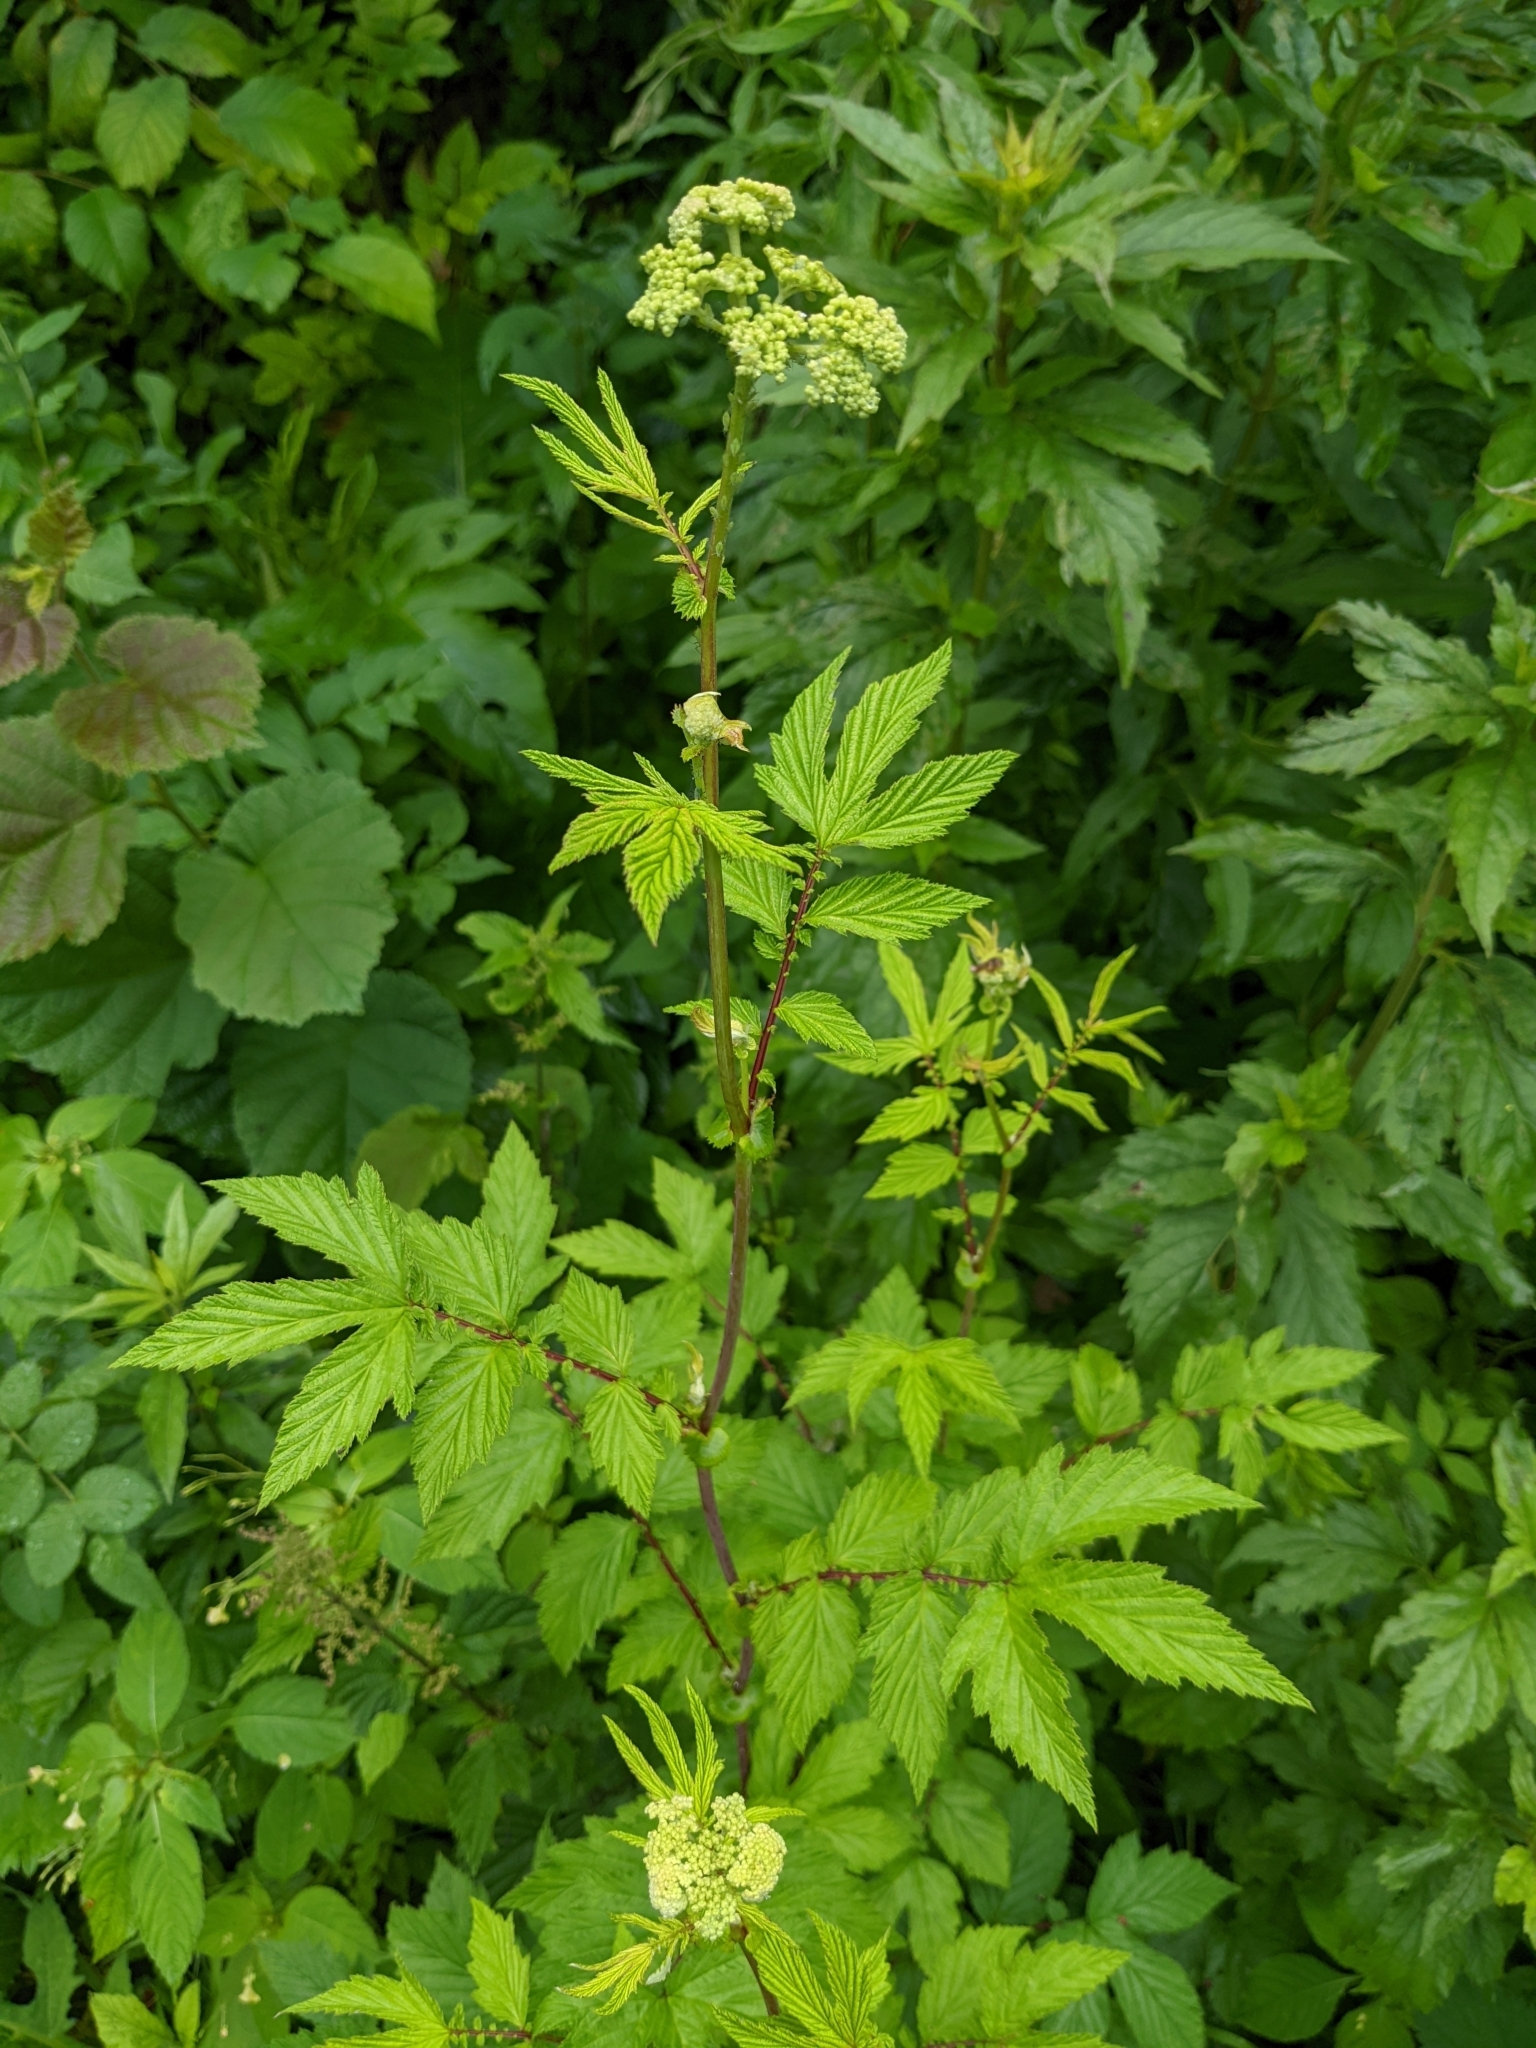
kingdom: Plantae
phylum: Tracheophyta
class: Magnoliopsida
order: Rosales
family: Rosaceae
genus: Filipendula
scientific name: Filipendula ulmaria
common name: Meadowsweet
